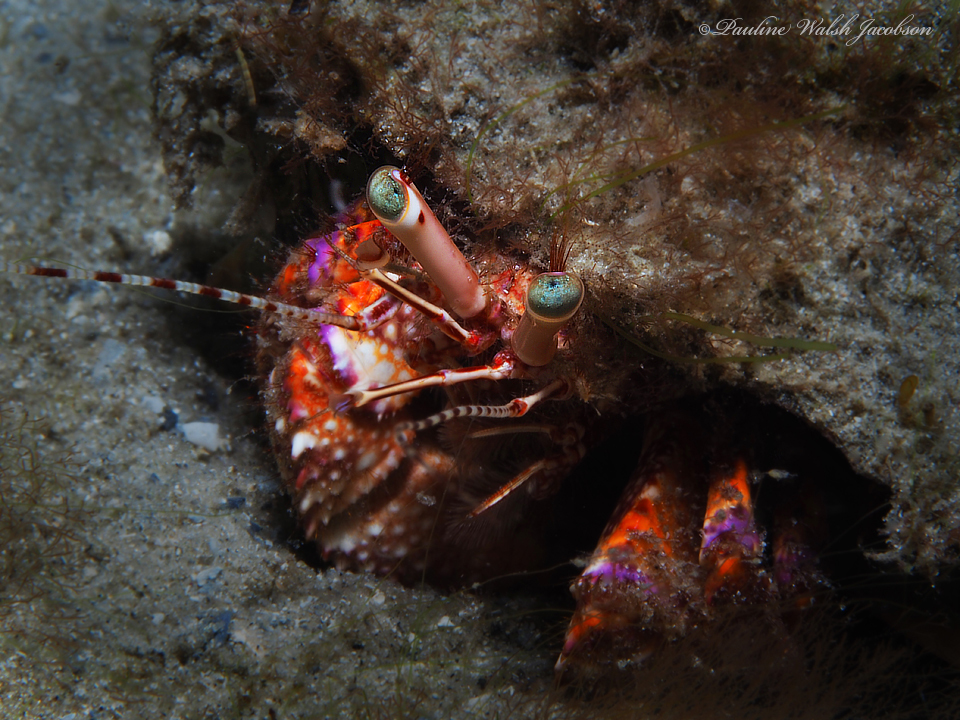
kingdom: Animalia
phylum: Arthropoda
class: Malacostraca
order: Decapoda
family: Diogenidae
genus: Petrochirus
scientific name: Petrochirus diogenes
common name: Giant hermit crab
